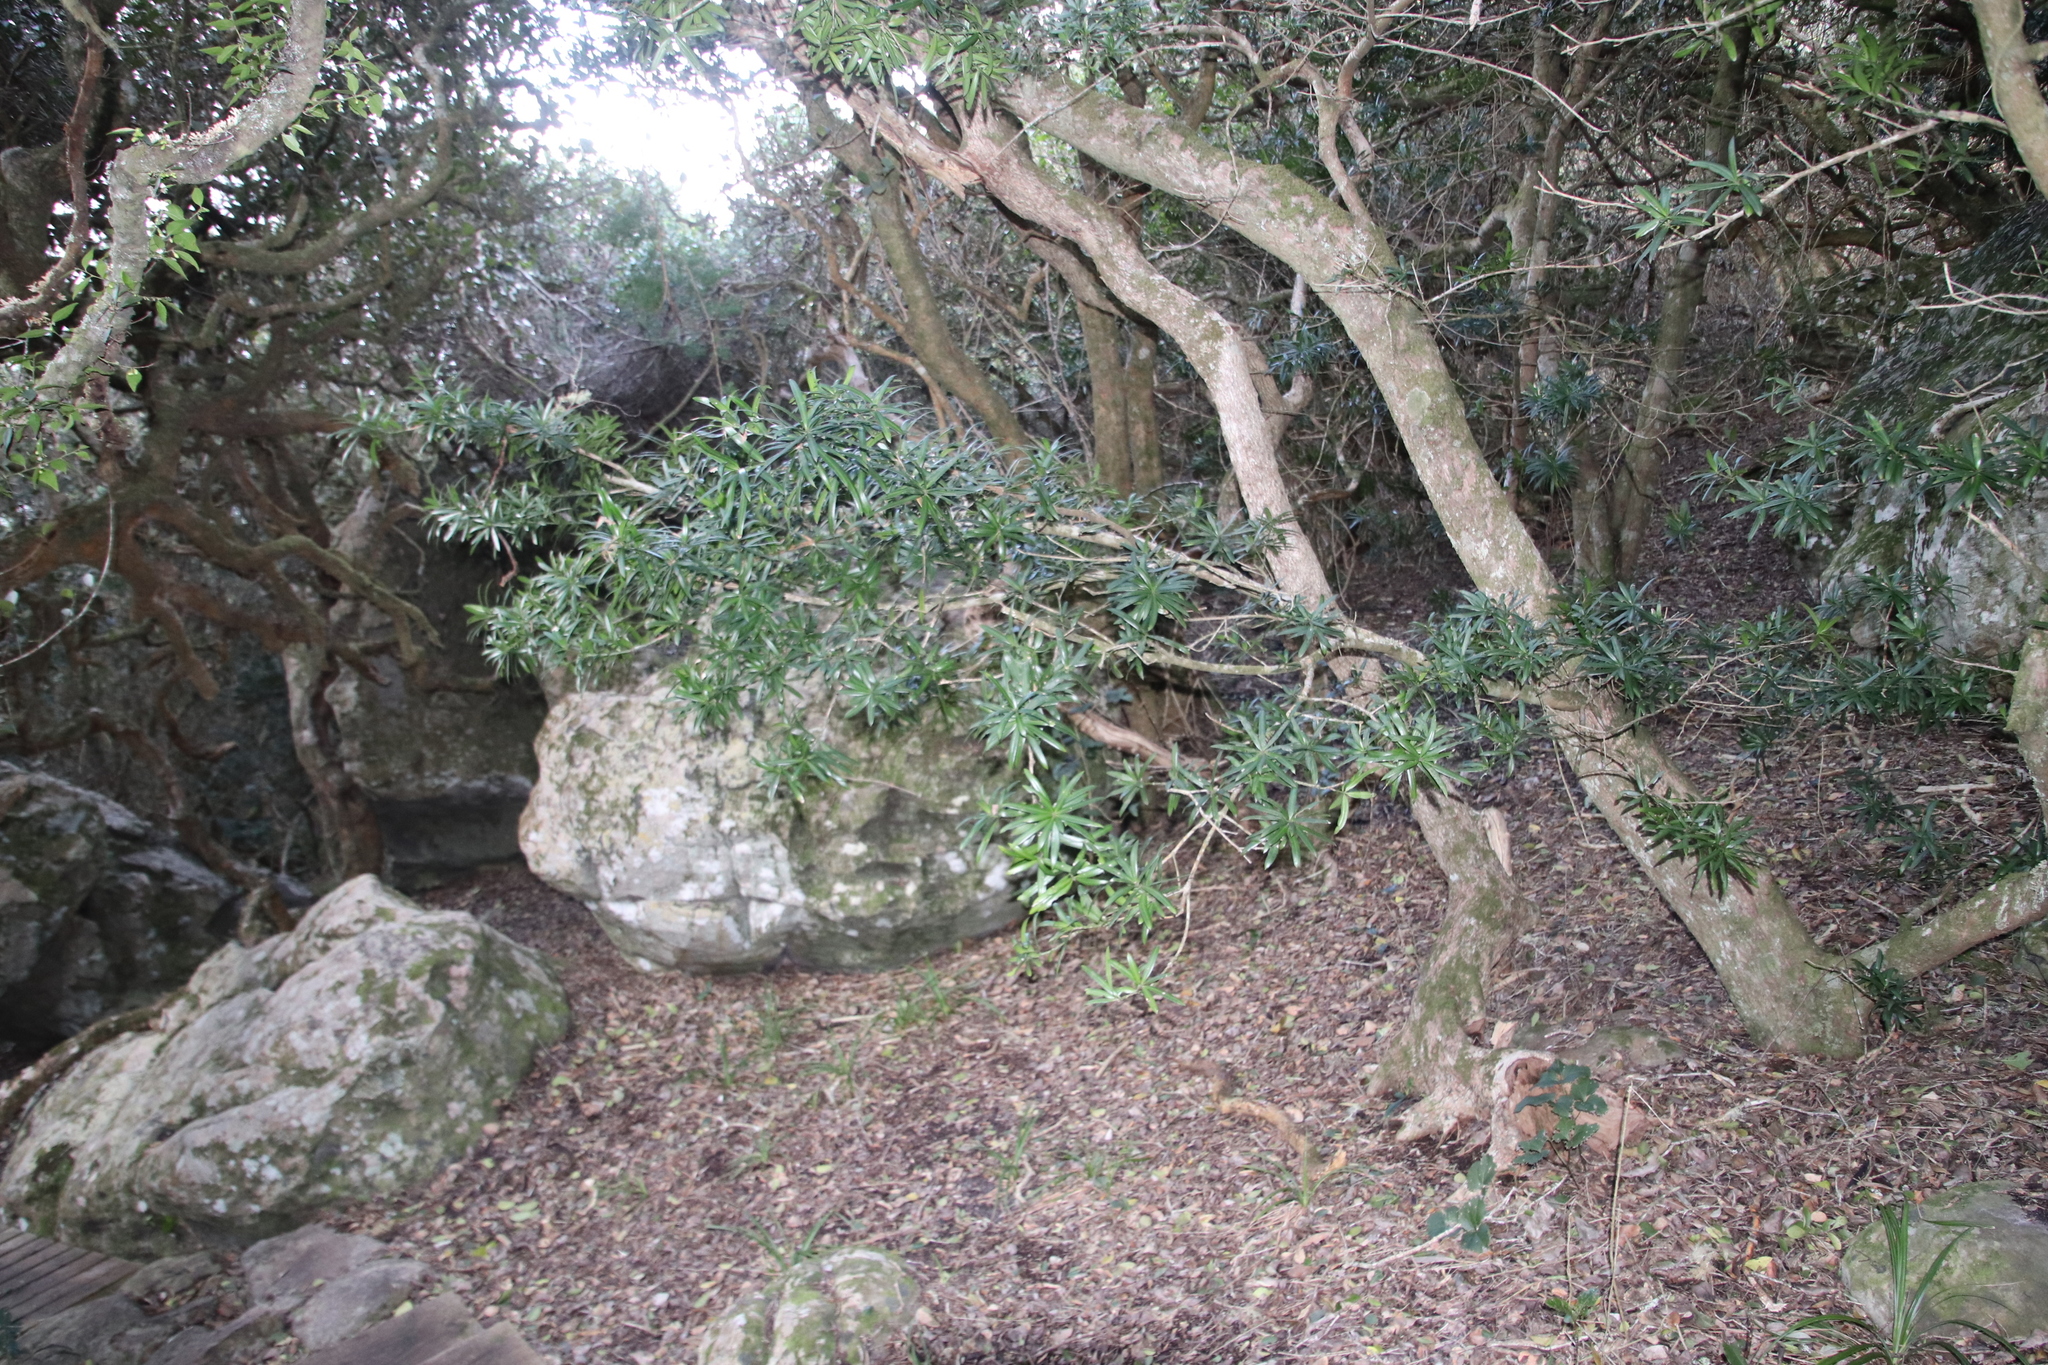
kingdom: Plantae
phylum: Tracheophyta
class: Pinopsida
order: Pinales
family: Podocarpaceae
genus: Podocarpus
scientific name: Podocarpus latifolius
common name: True yellowwood
